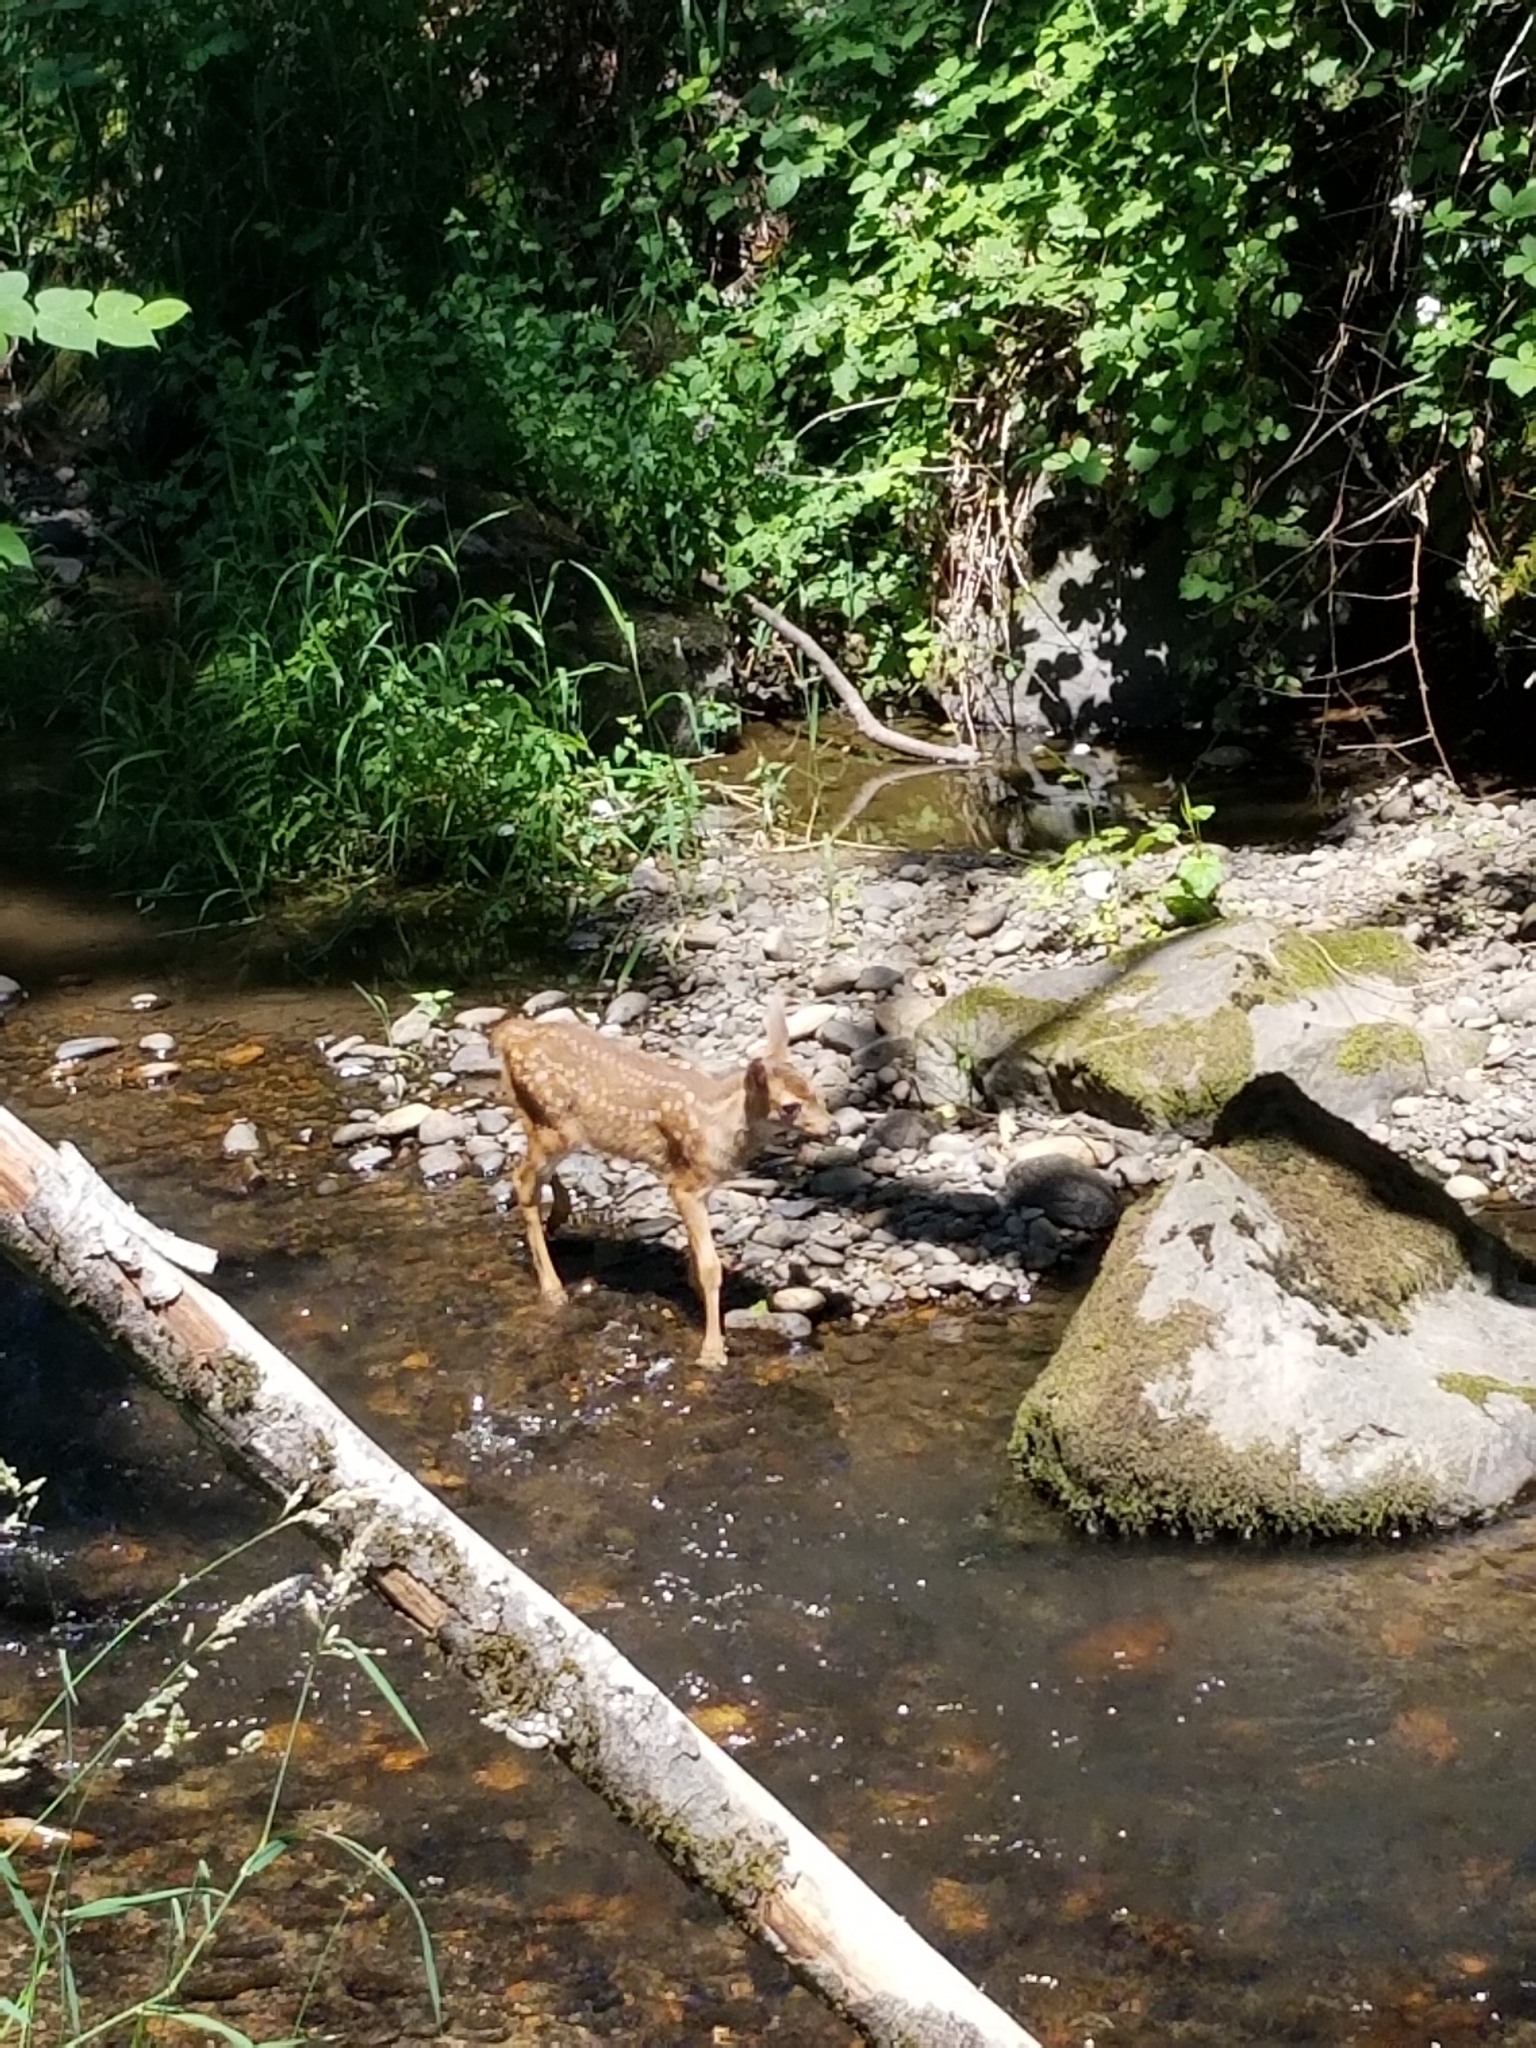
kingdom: Animalia
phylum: Chordata
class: Mammalia
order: Artiodactyla
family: Cervidae
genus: Odocoileus
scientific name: Odocoileus hemionus
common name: Mule deer
